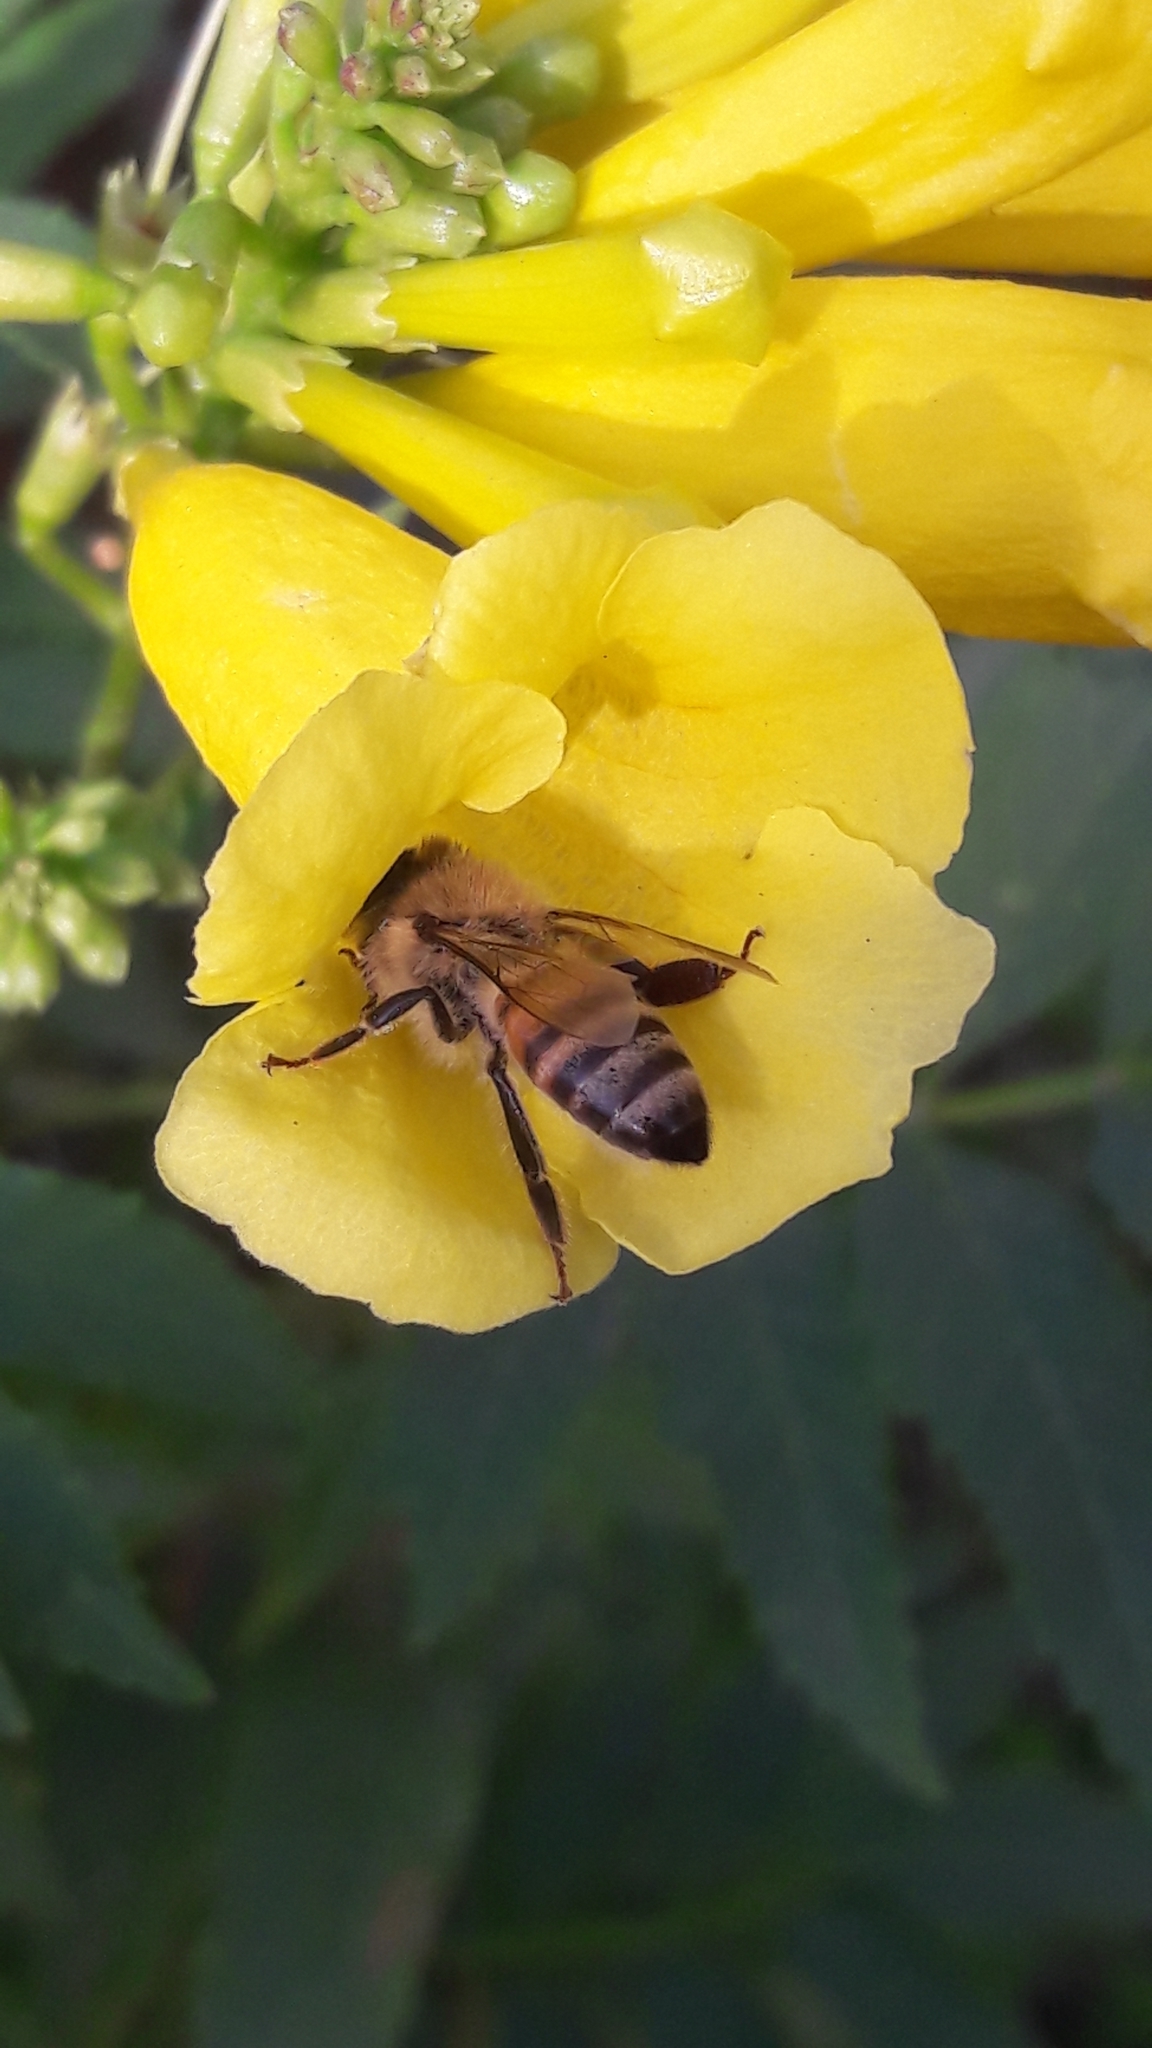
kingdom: Animalia
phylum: Arthropoda
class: Insecta
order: Hymenoptera
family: Apidae
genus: Apis
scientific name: Apis mellifera
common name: Honey bee
